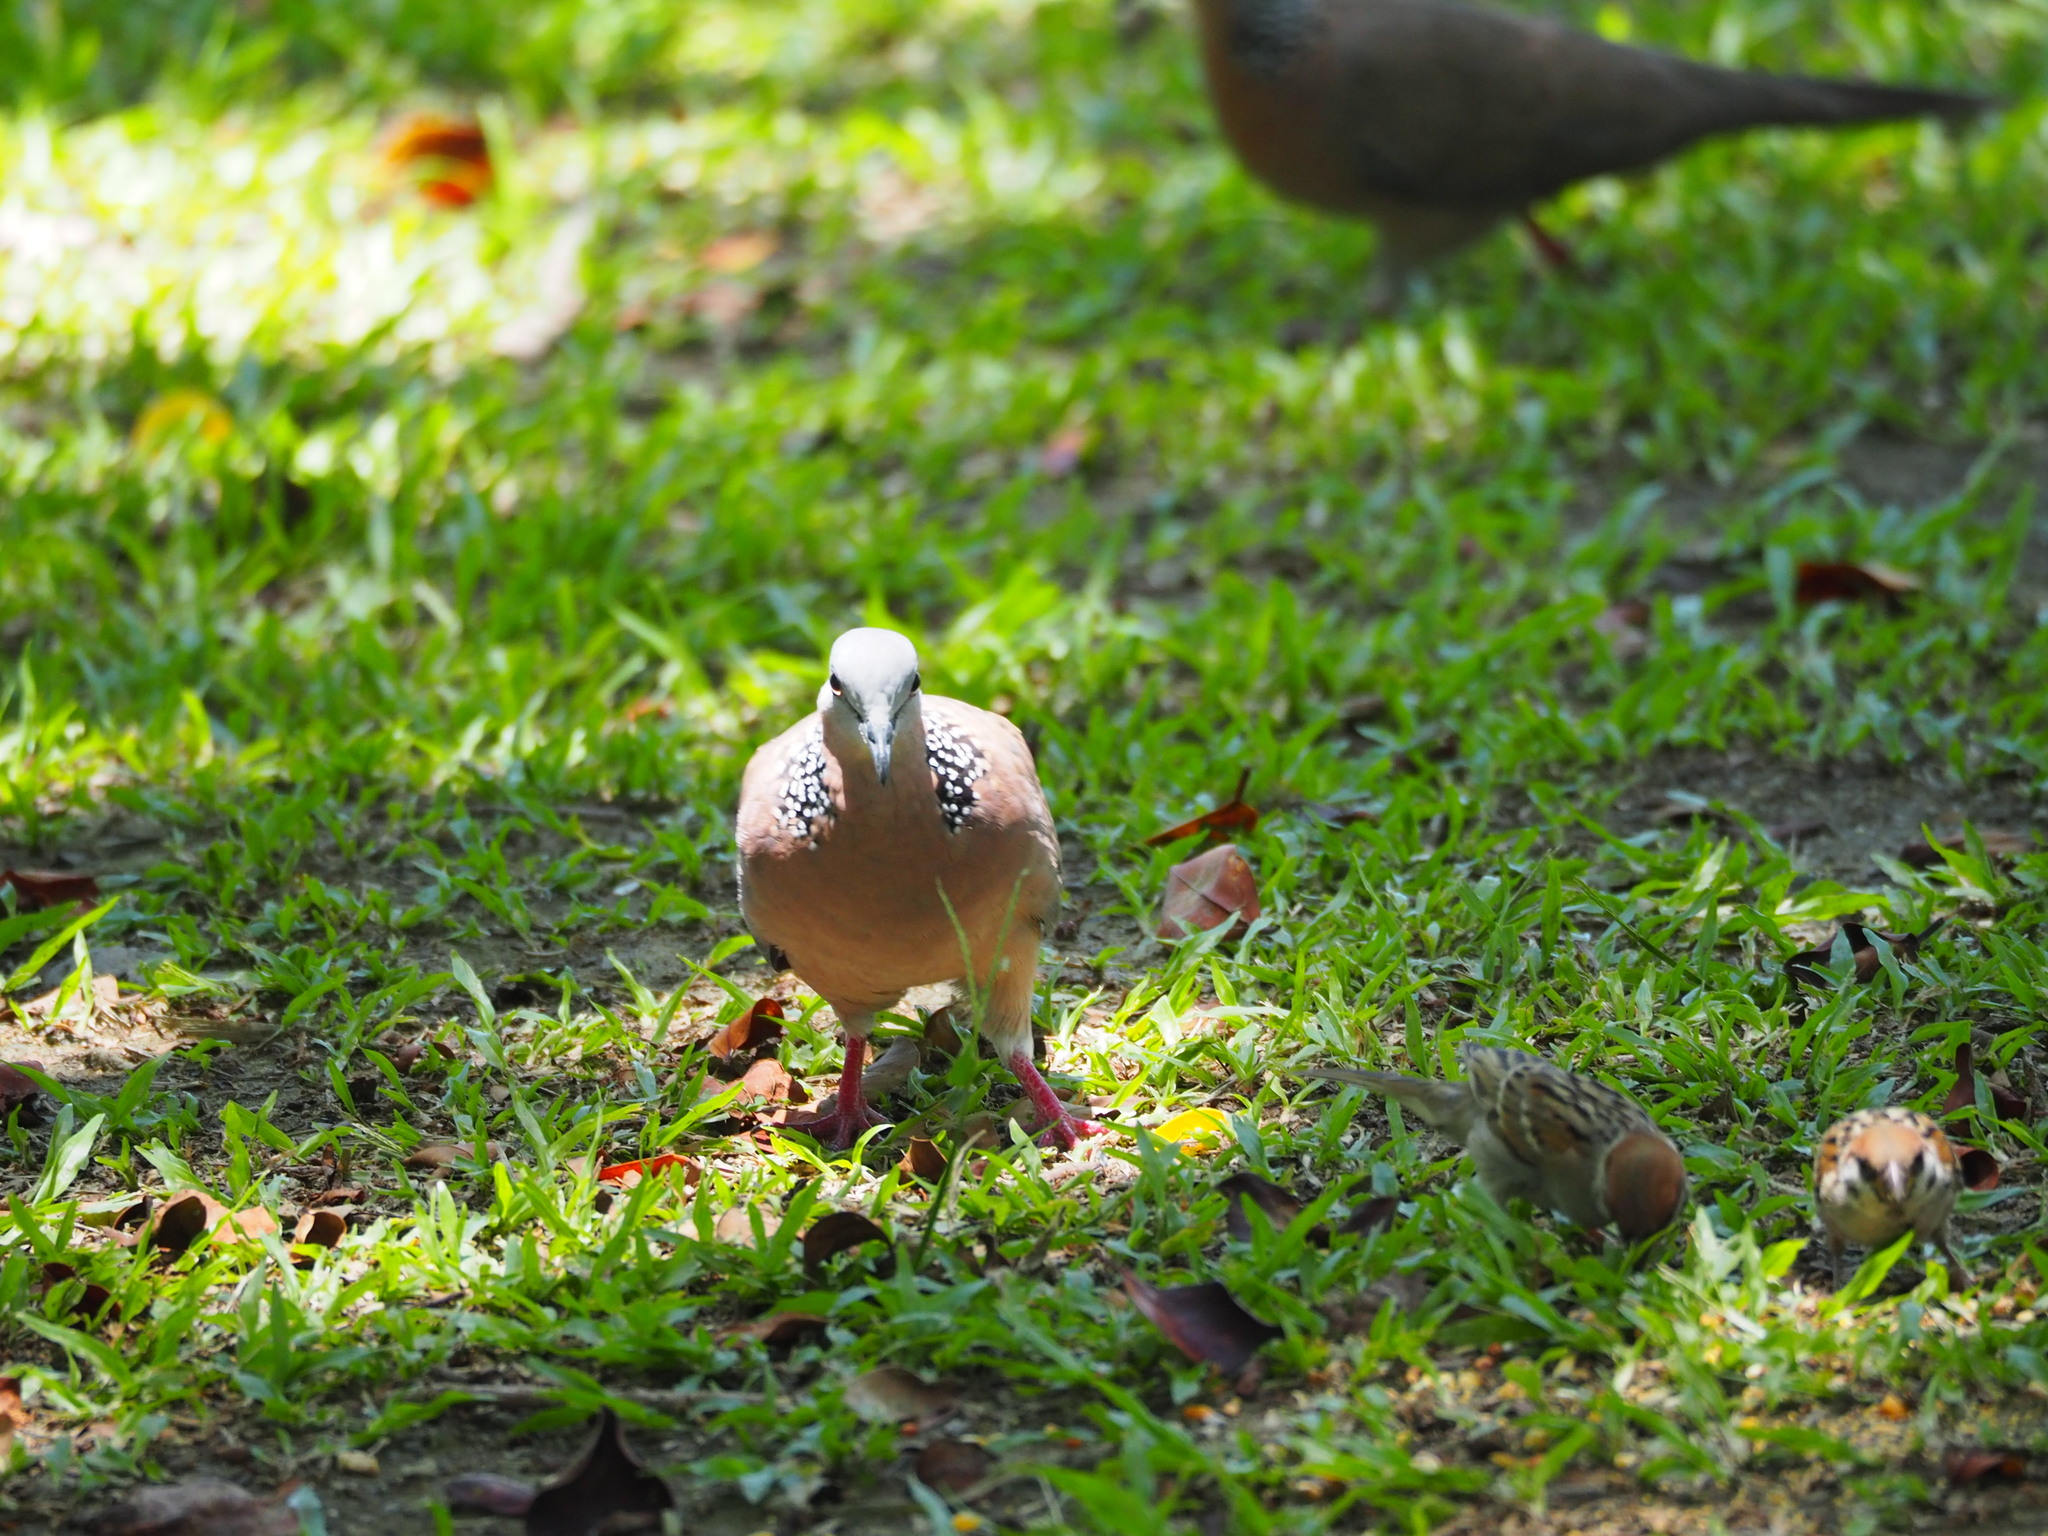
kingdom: Animalia
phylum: Chordata
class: Aves
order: Columbiformes
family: Columbidae
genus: Spilopelia
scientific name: Spilopelia chinensis
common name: Spotted dove
